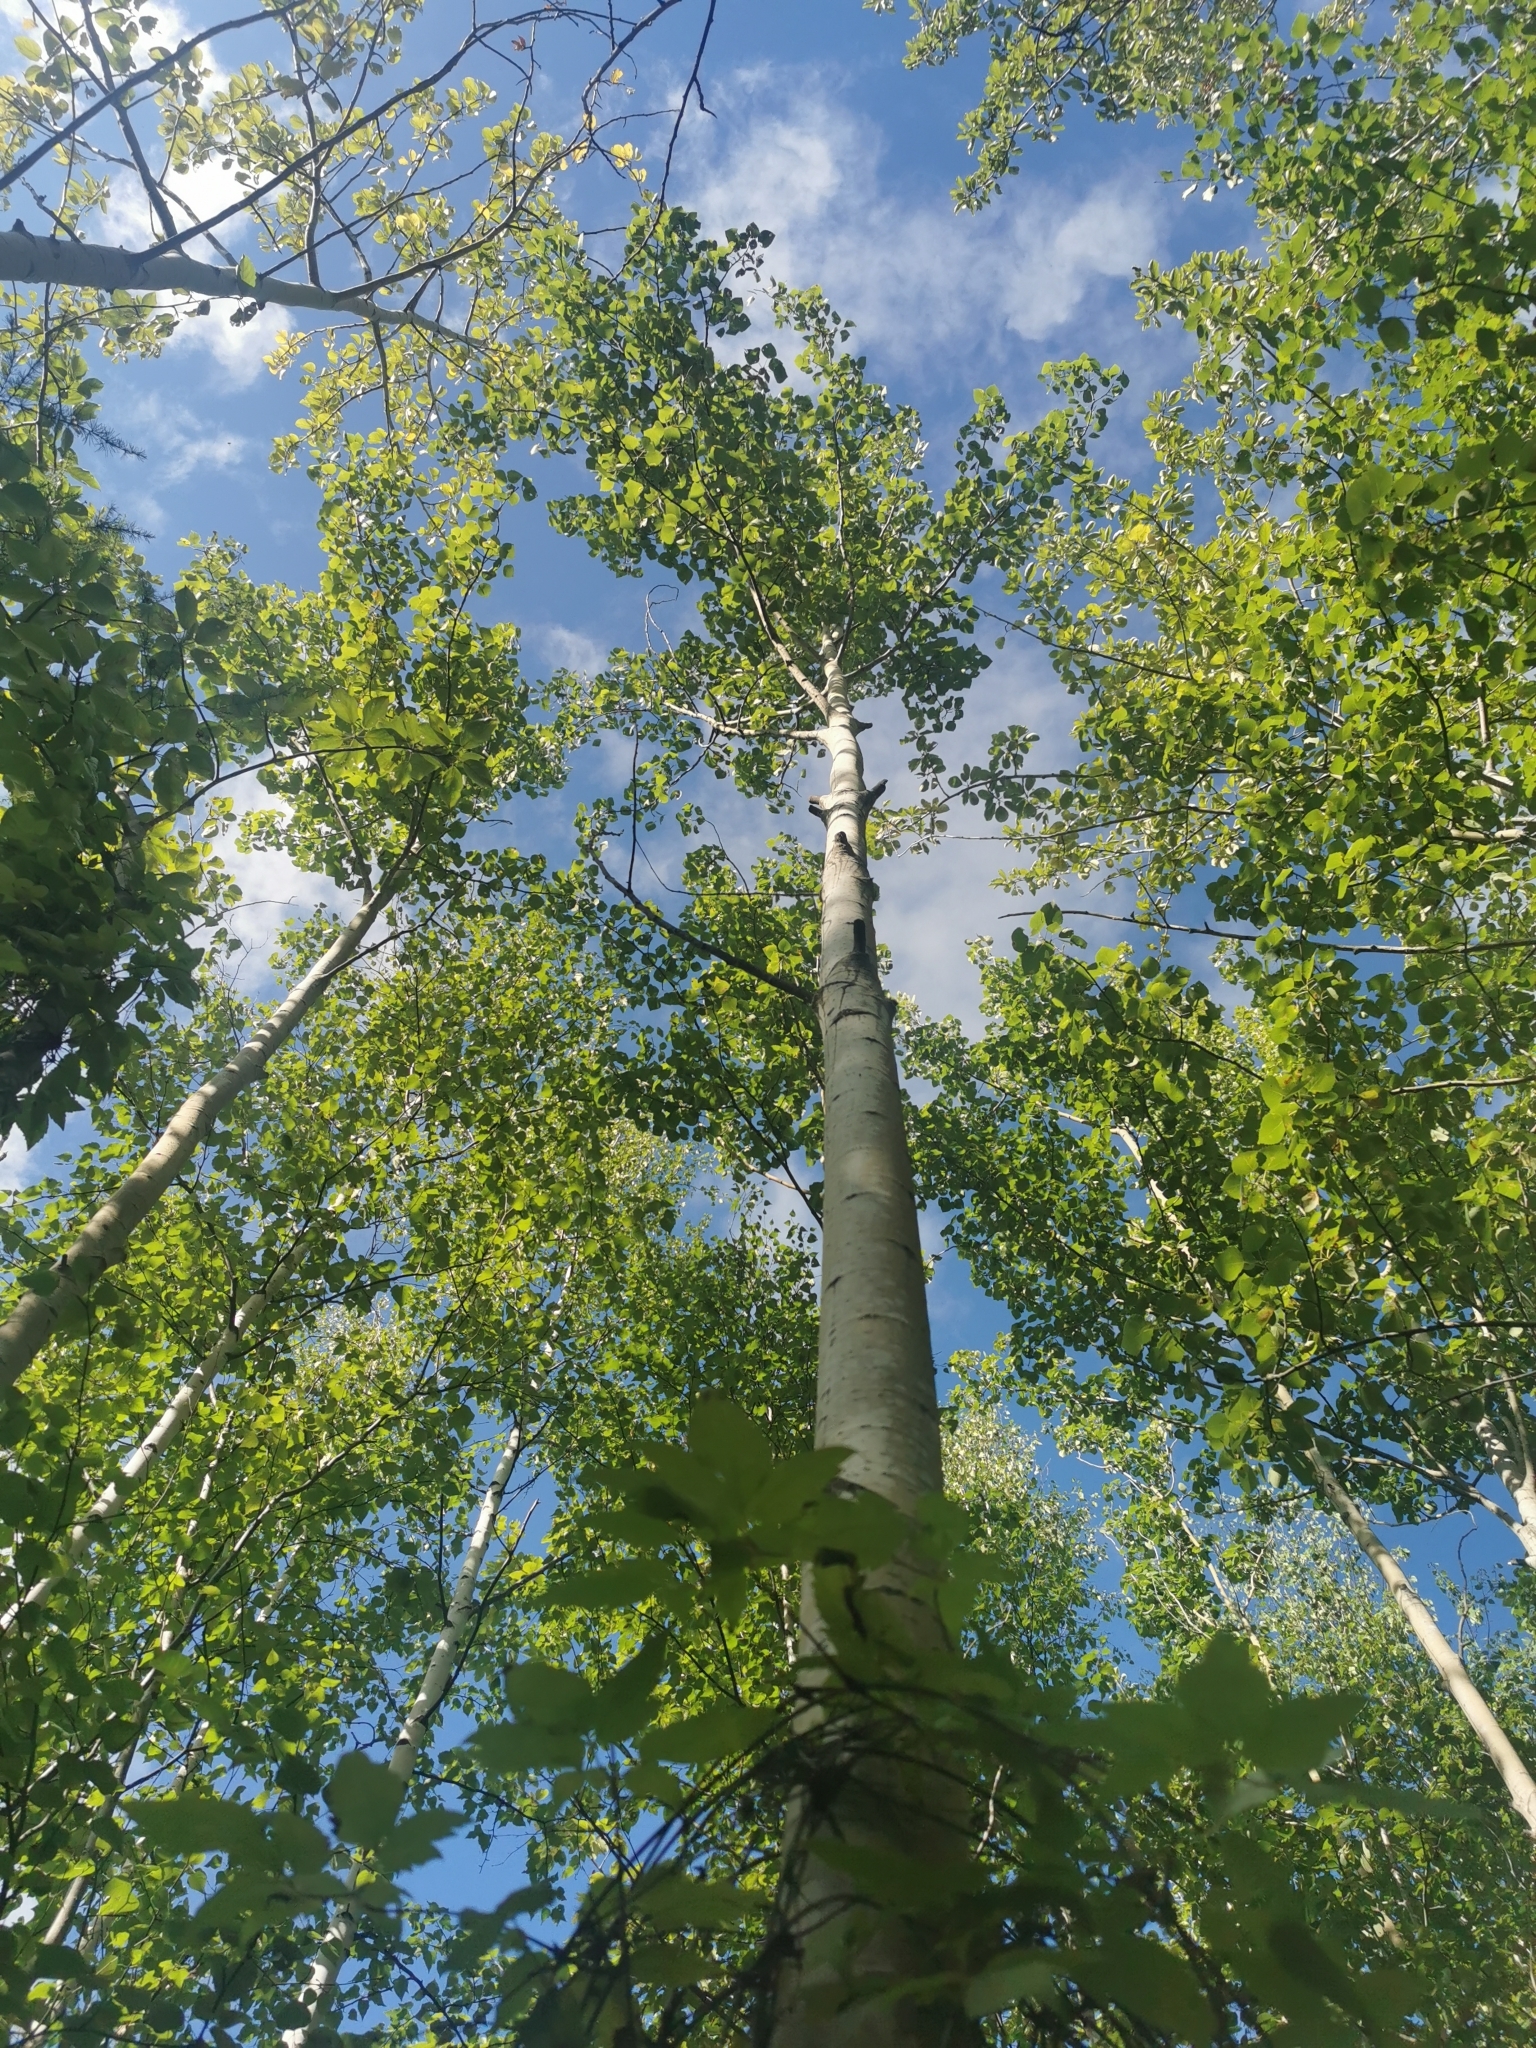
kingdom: Plantae
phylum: Tracheophyta
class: Magnoliopsida
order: Malpighiales
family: Salicaceae
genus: Populus
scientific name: Populus tremula
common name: European aspen
